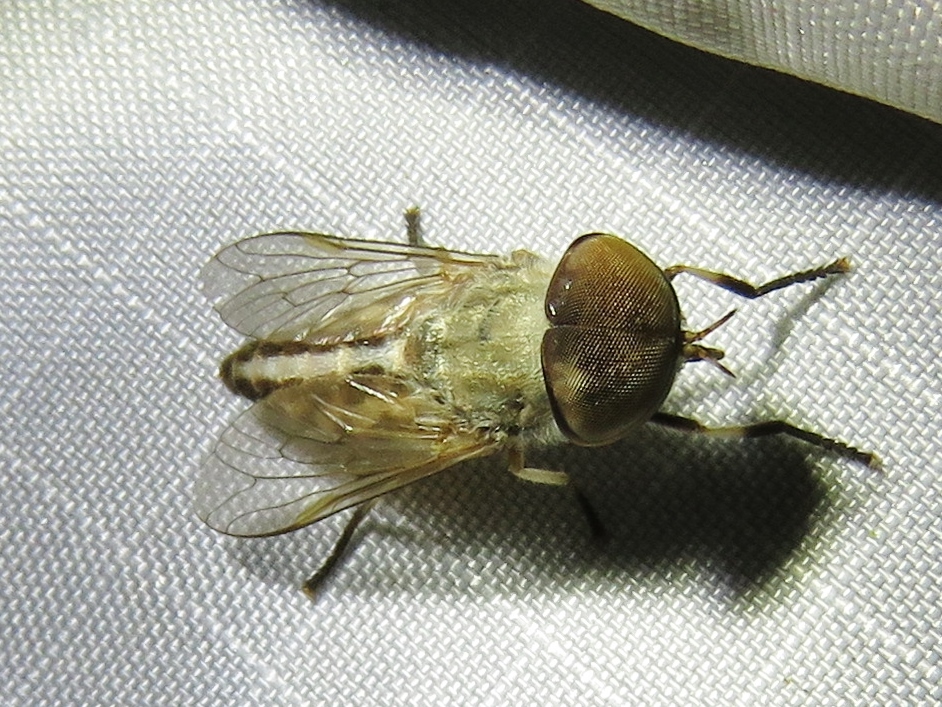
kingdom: Animalia
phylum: Arthropoda
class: Insecta
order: Diptera
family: Tabanidae
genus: Tabanus
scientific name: Tabanus lineola
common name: Striped horse fly
